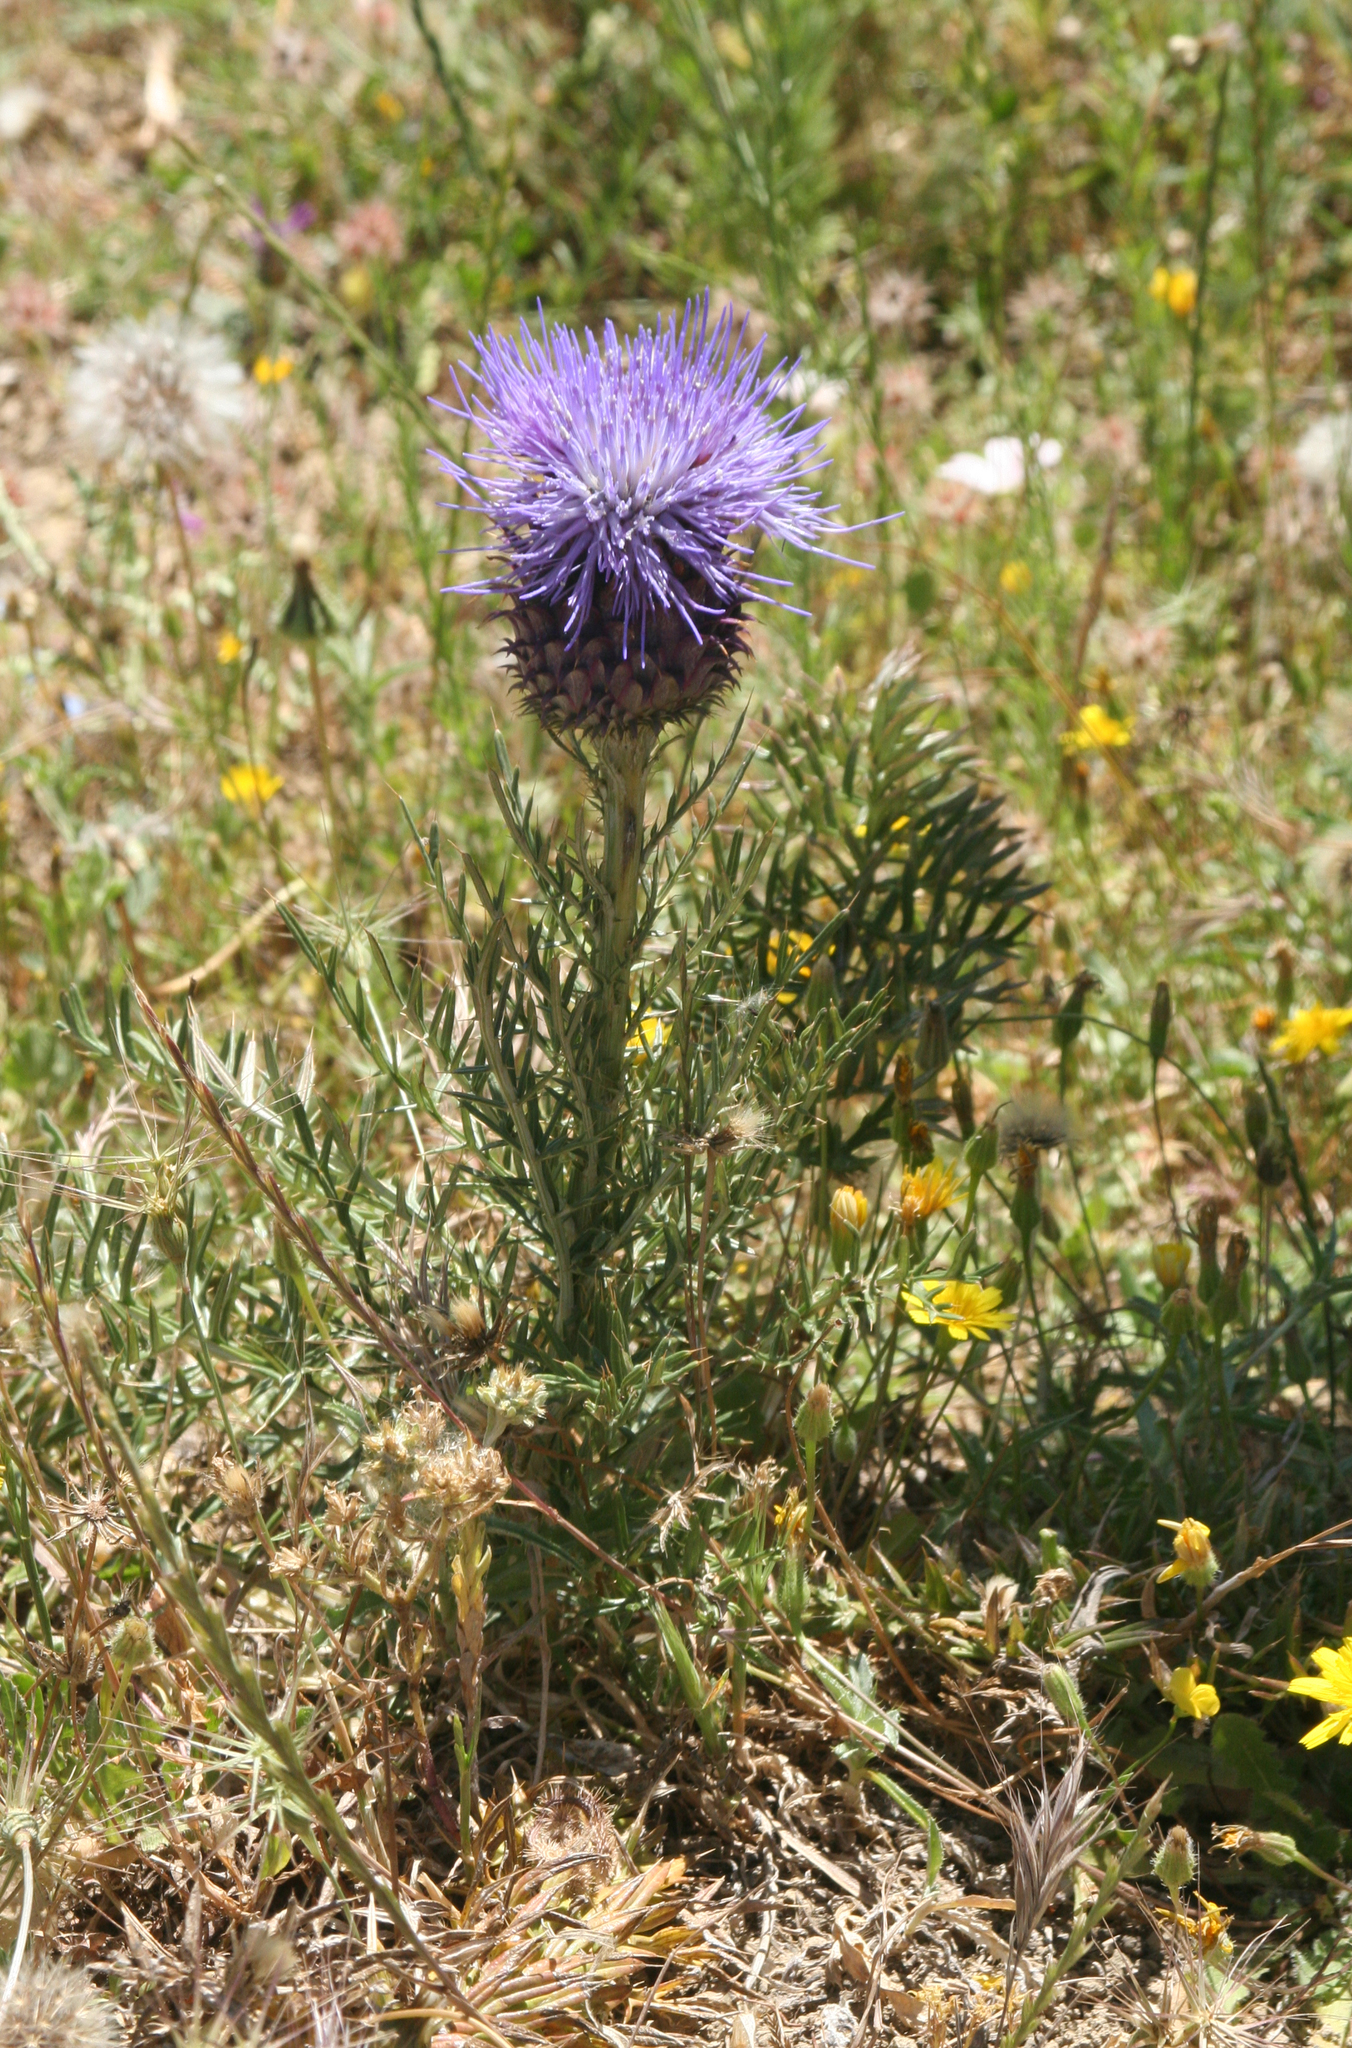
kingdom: Plantae
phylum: Tracheophyta
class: Magnoliopsida
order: Asterales
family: Asteraceae
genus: Cynara
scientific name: Cynara humilis
